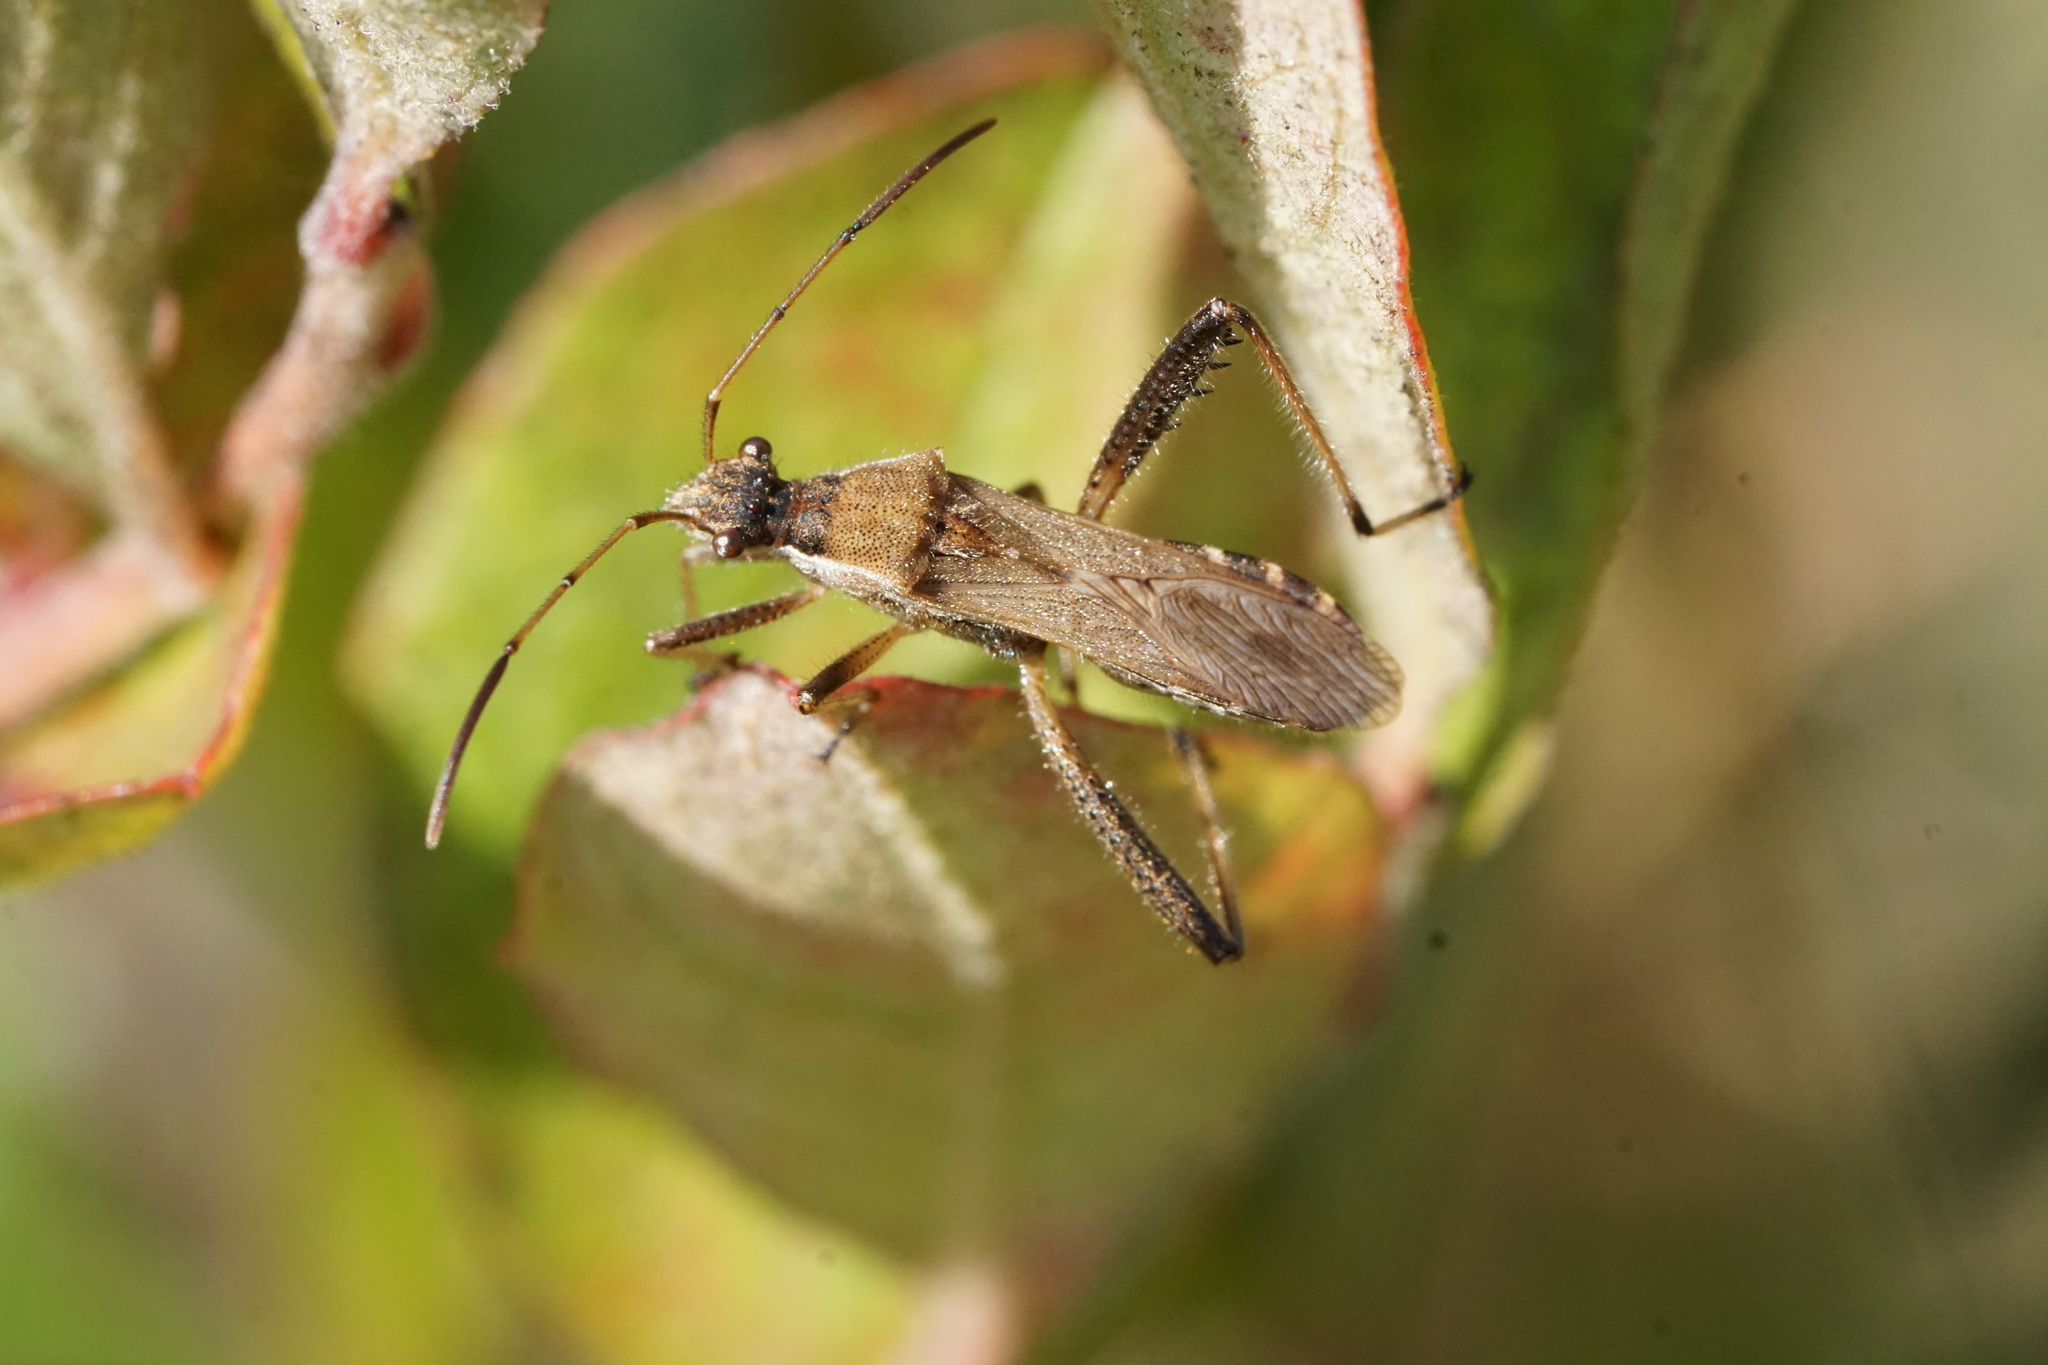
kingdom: Animalia
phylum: Arthropoda
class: Insecta
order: Hemiptera
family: Alydidae
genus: Alydus
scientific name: Alydus pilosulus
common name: Broad-headed bug
